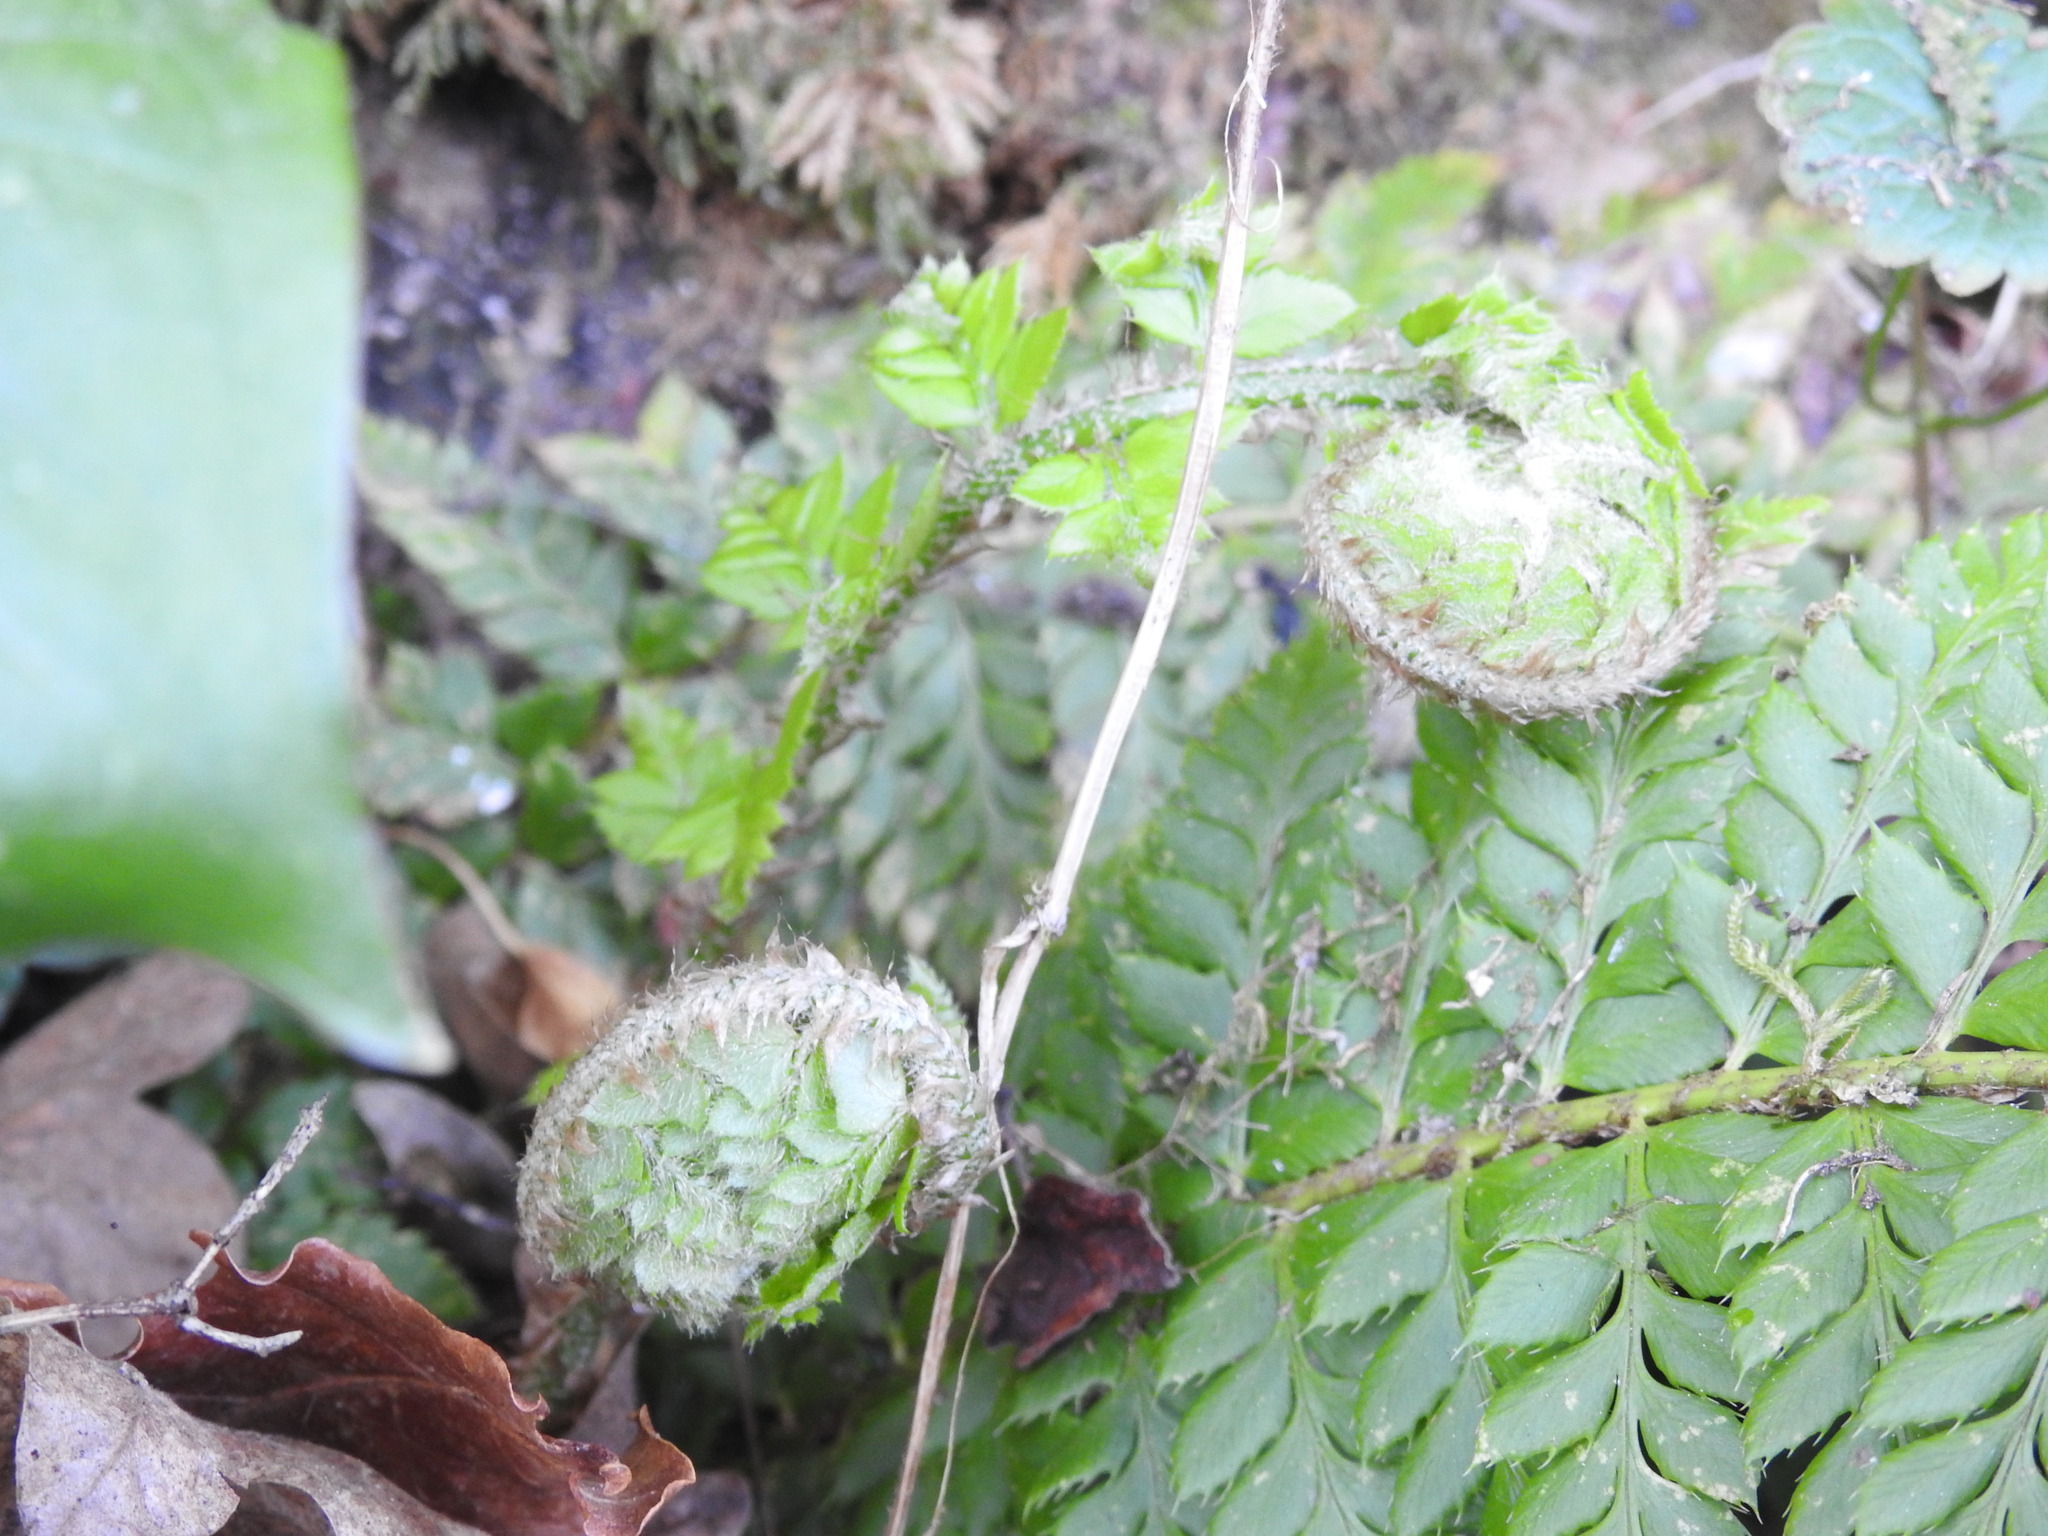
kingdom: Plantae
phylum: Tracheophyta
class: Polypodiopsida
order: Polypodiales
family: Dryopteridaceae
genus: Polystichum
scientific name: Polystichum aculeatum
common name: Hard shield-fern
